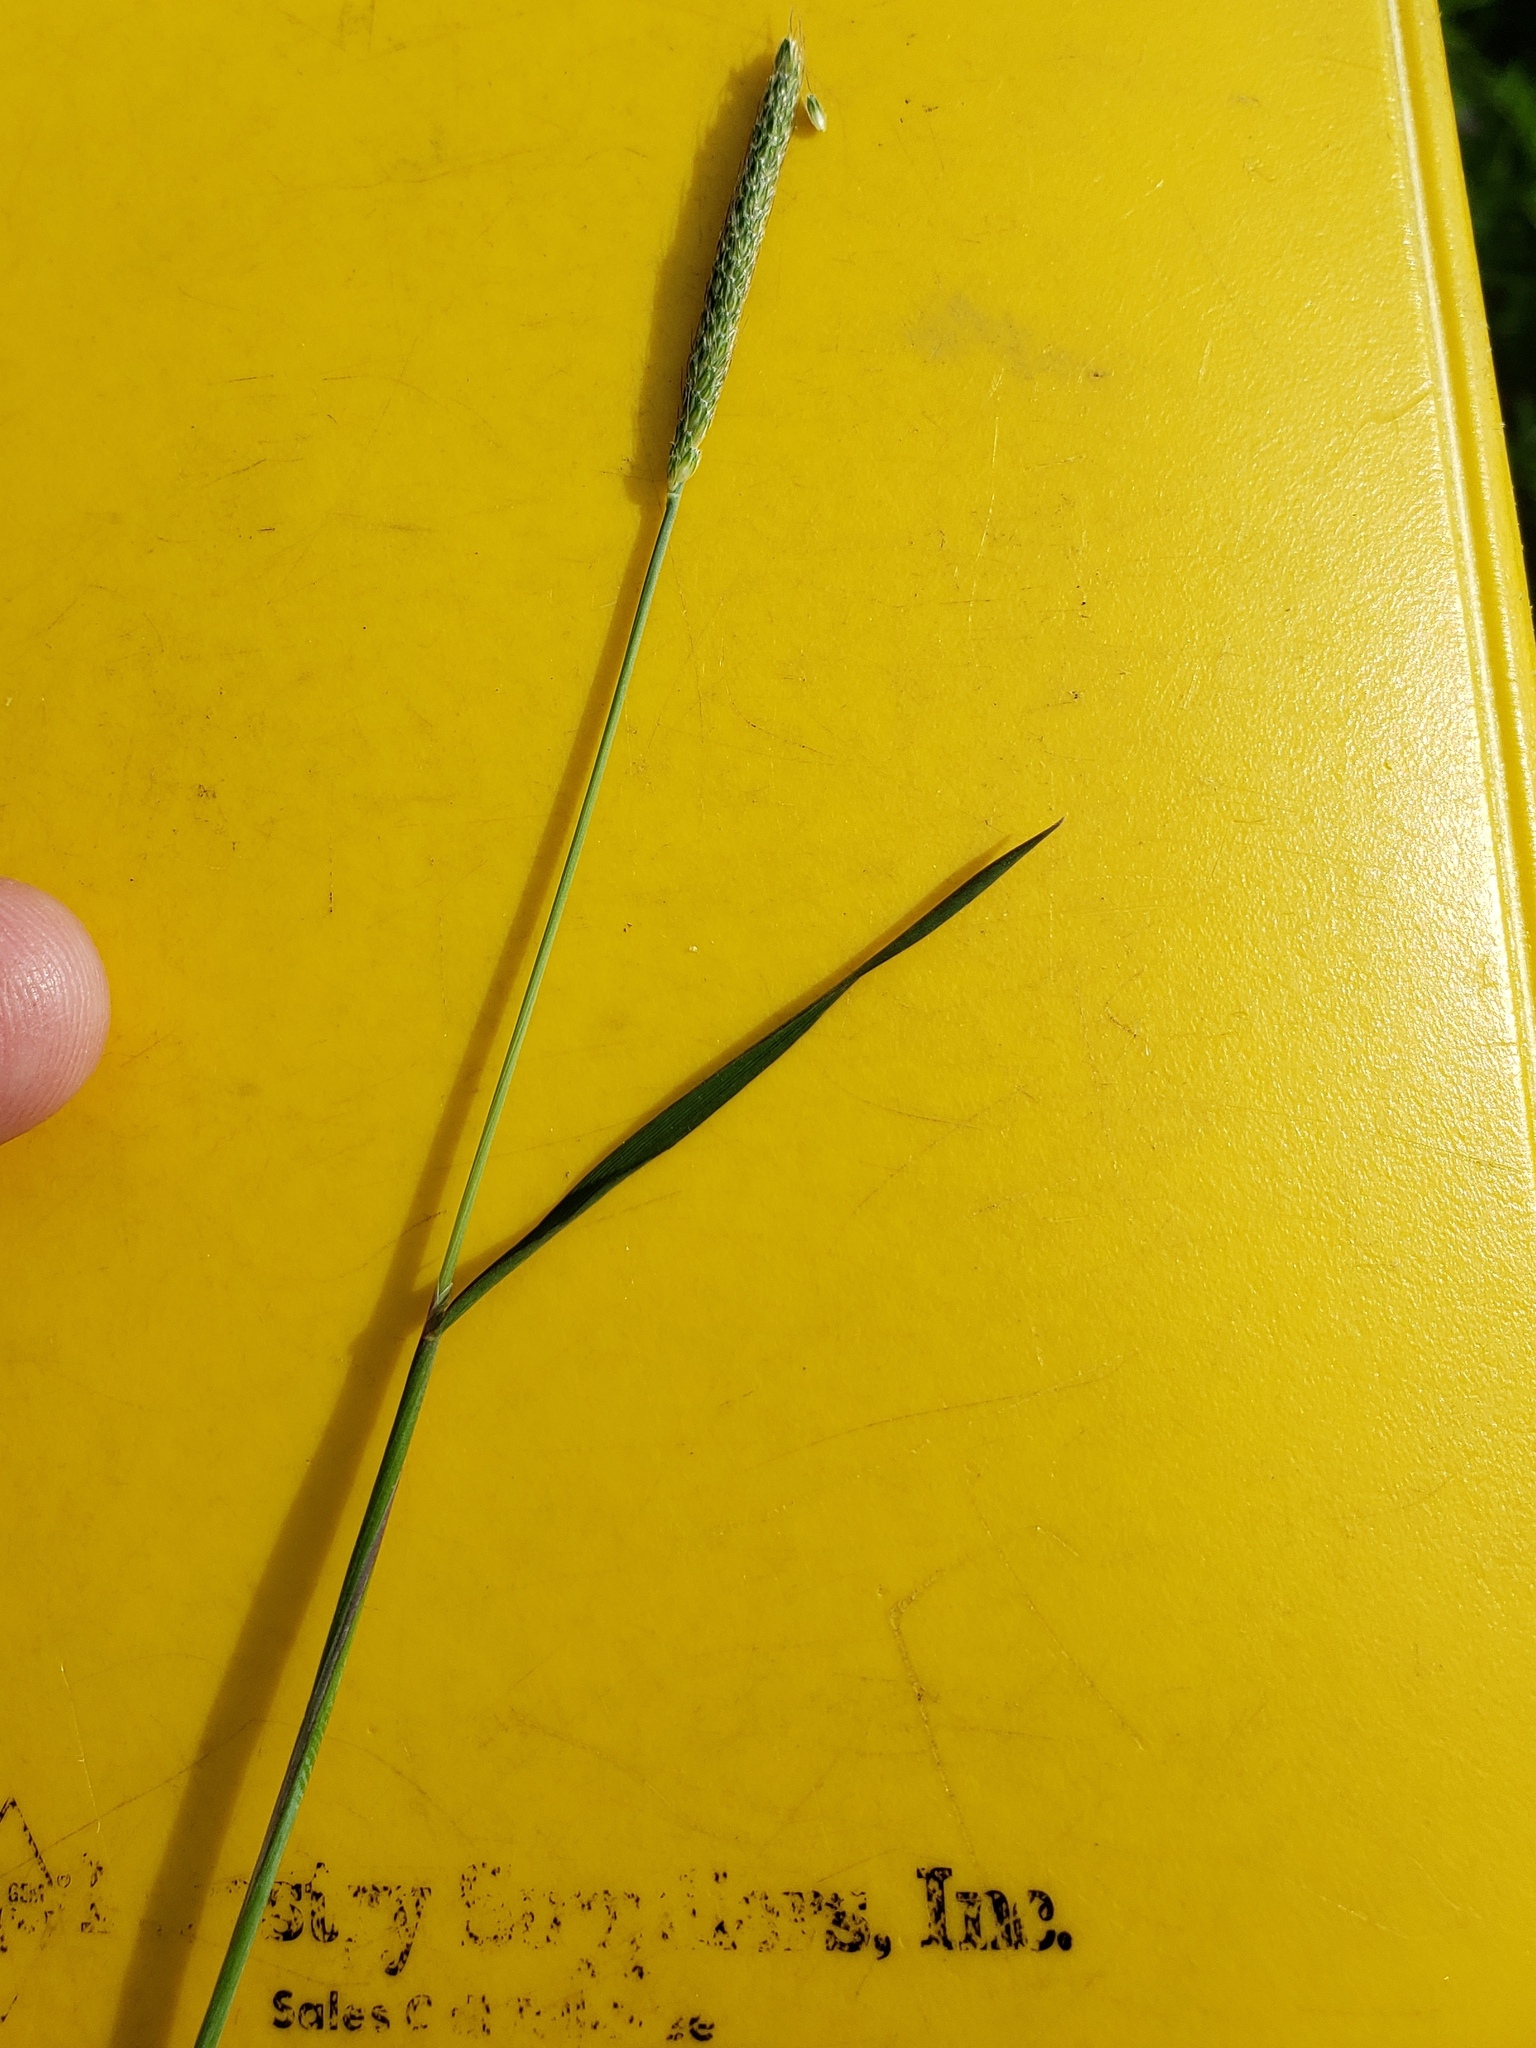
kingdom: Plantae
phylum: Tracheophyta
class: Liliopsida
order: Poales
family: Poaceae
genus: Alopecurus
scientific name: Alopecurus carolinianus
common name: Tufted foxtail
